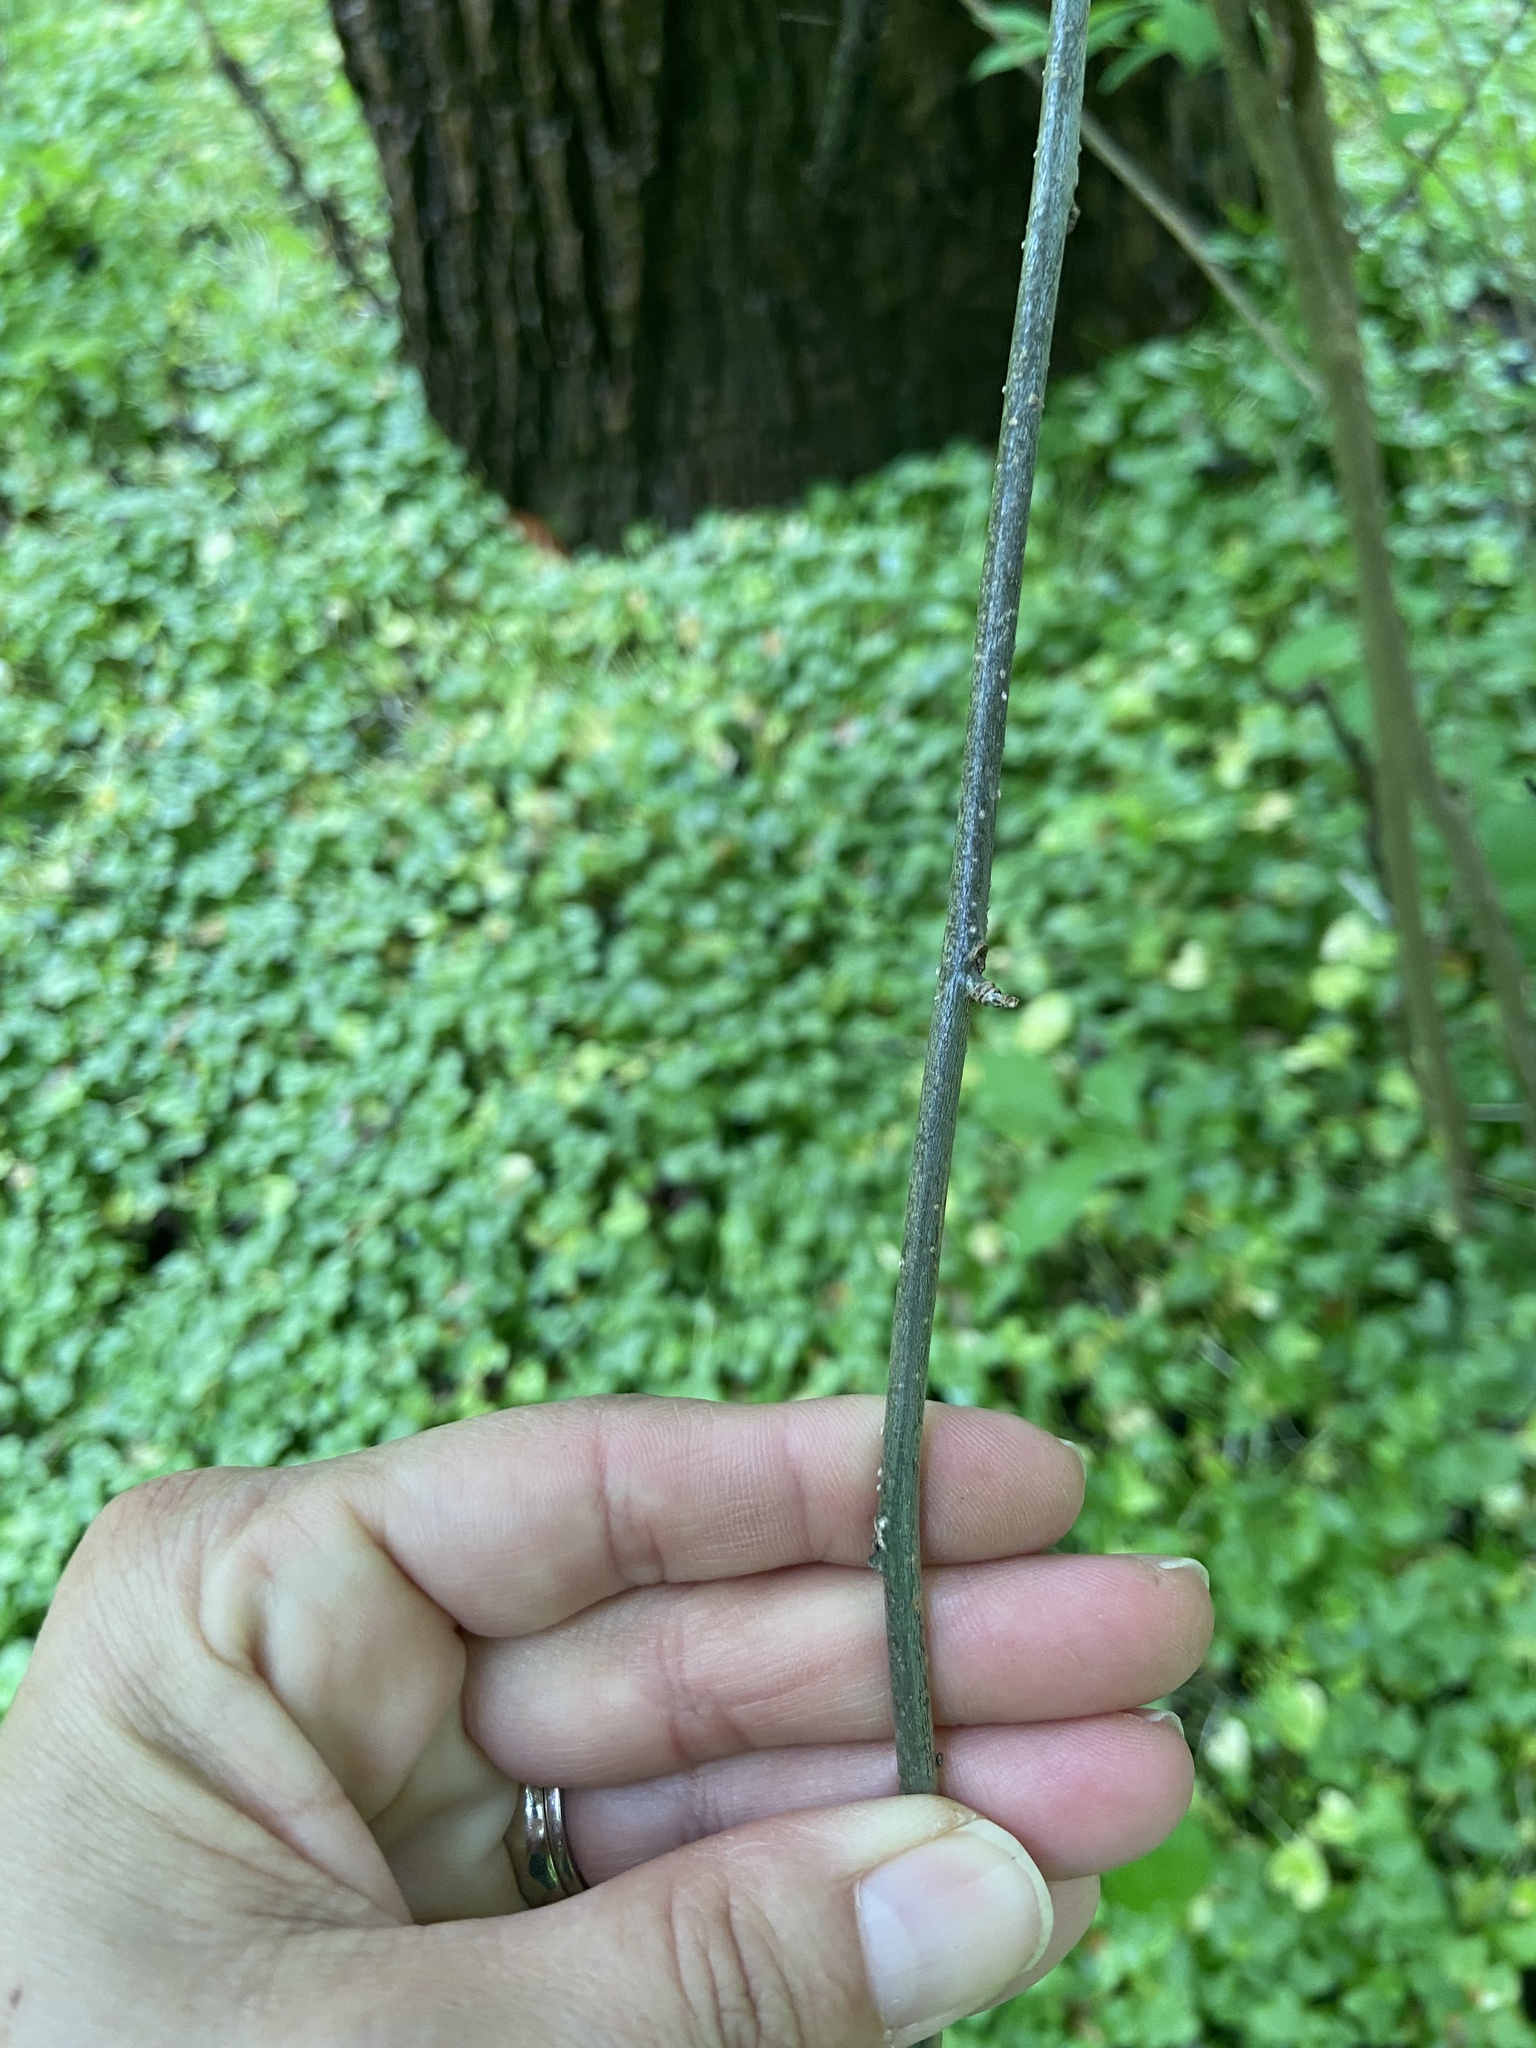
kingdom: Plantae
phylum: Tracheophyta
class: Magnoliopsida
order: Laurales
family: Lauraceae
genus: Lindera
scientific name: Lindera benzoin
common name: Spicebush
